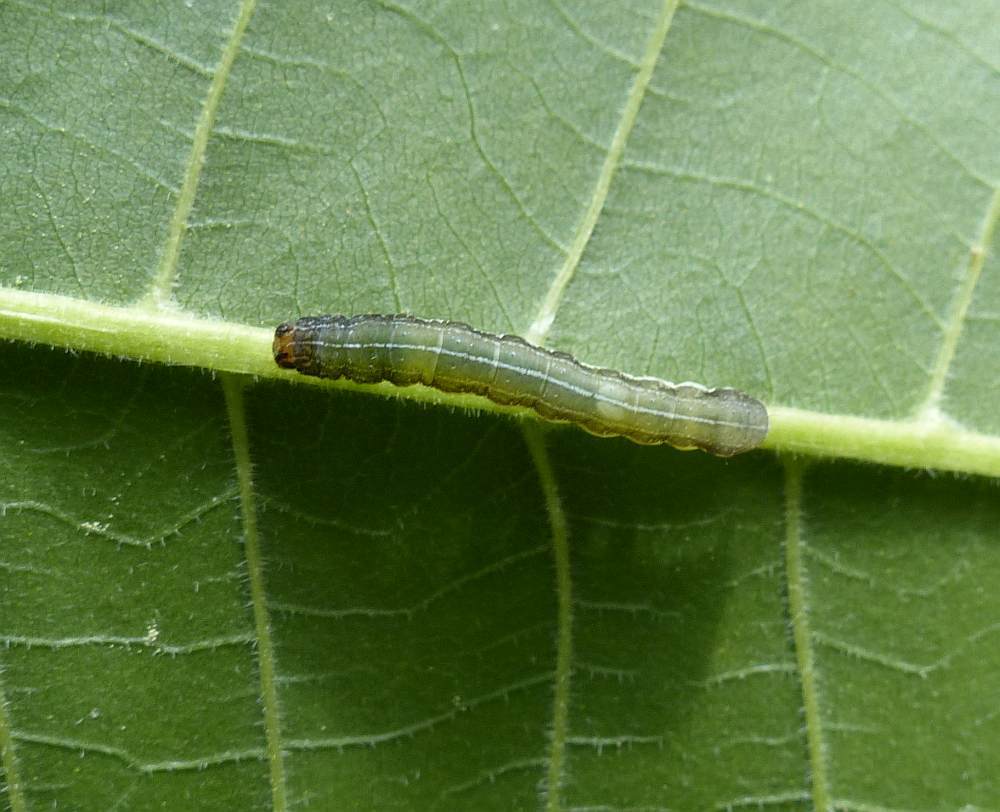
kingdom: Animalia
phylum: Arthropoda
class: Insecta
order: Lepidoptera
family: Noctuidae
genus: Crocigrapha
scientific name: Crocigrapha normani
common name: Norman's quaker
